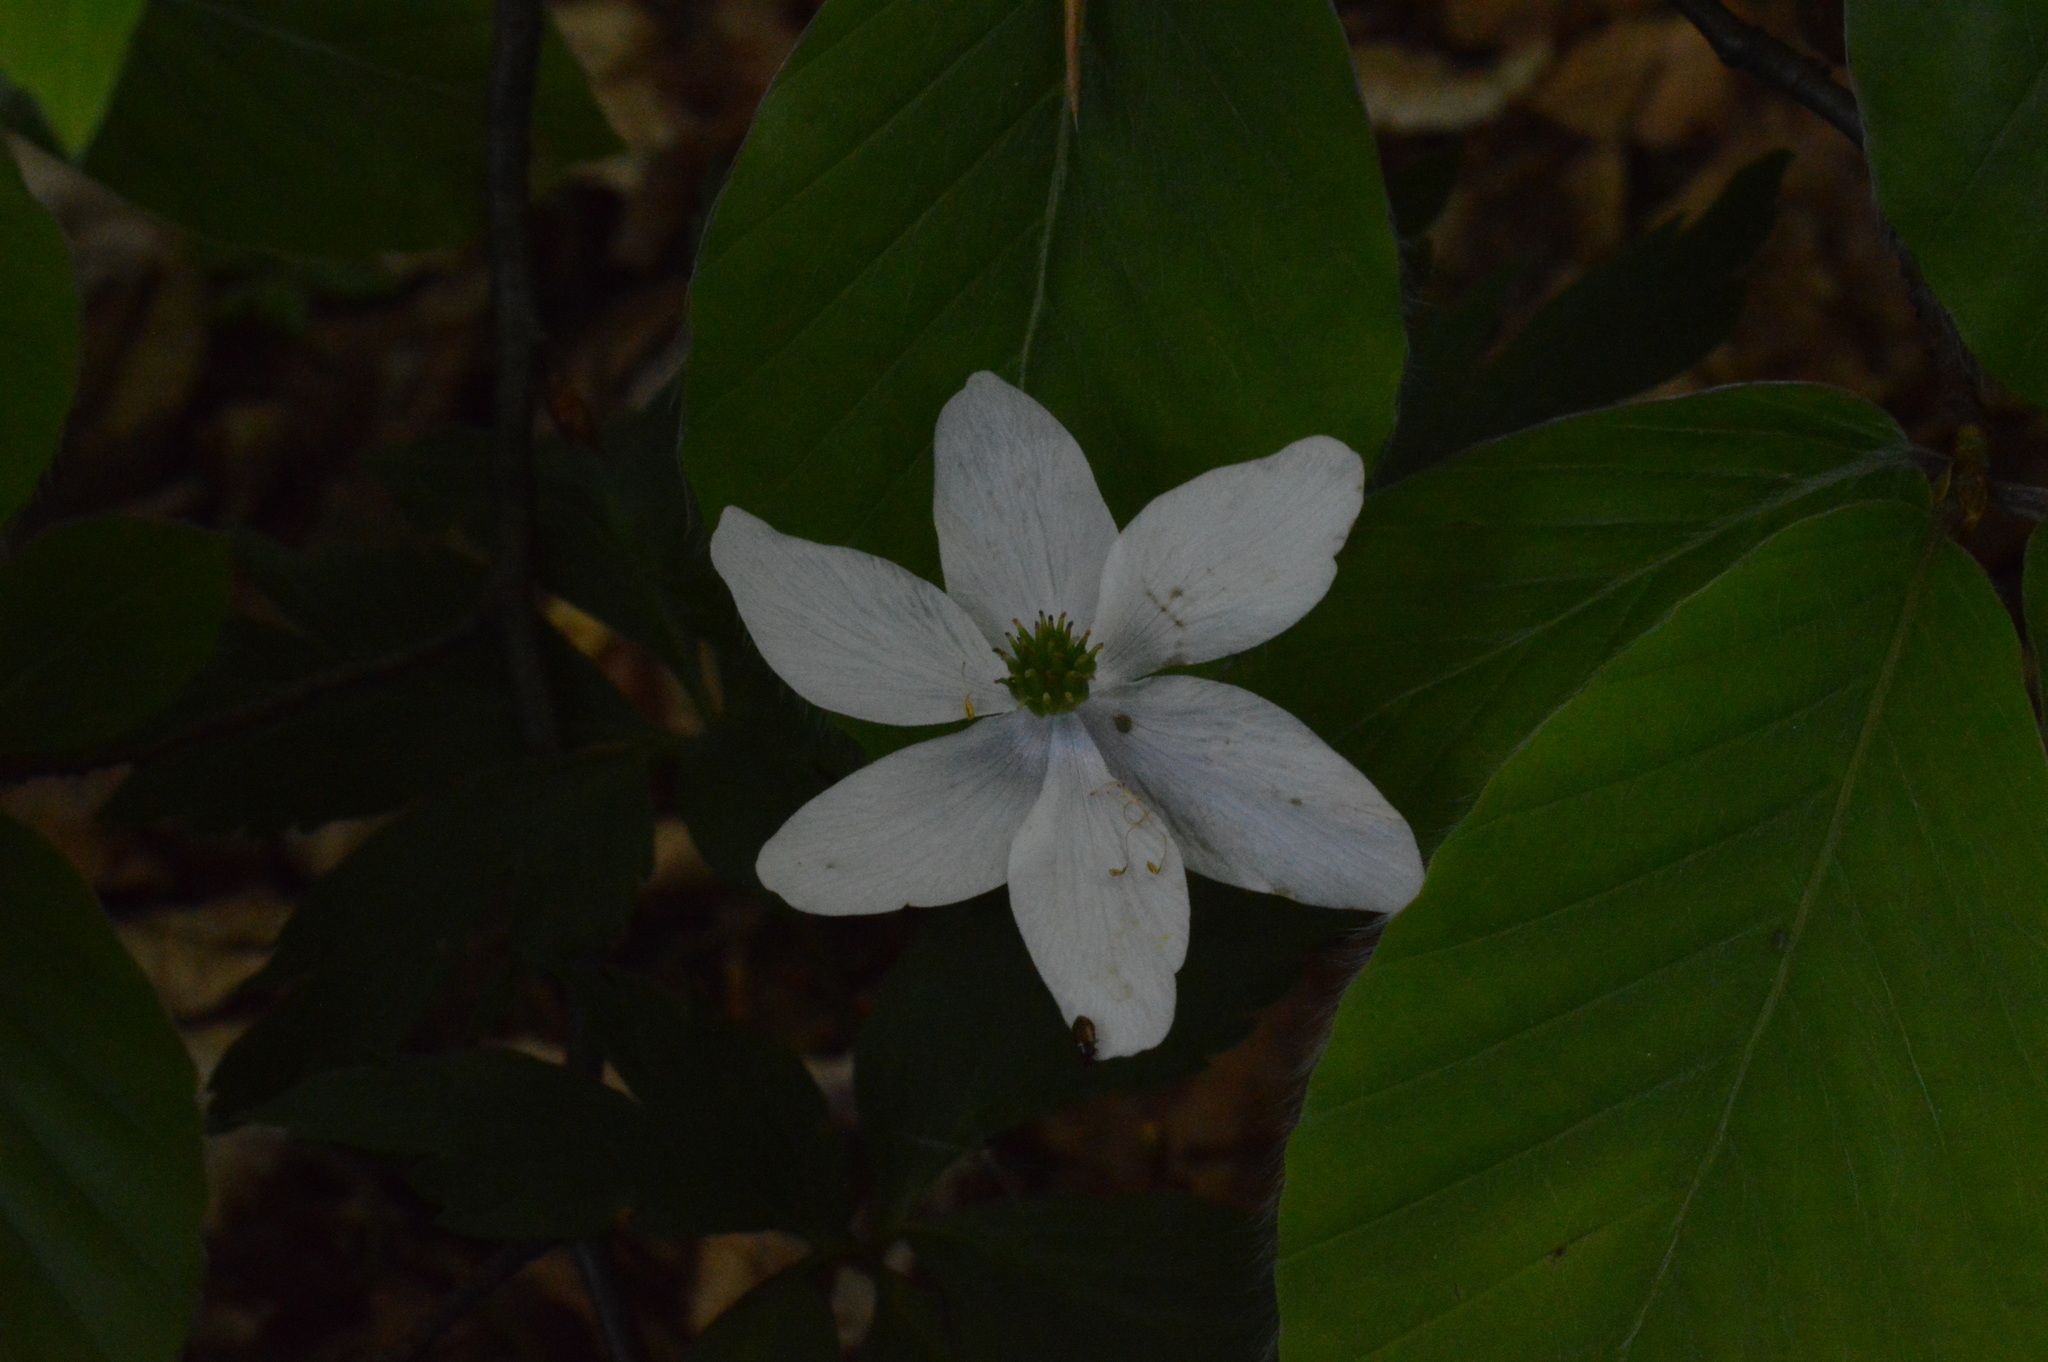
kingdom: Plantae
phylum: Tracheophyta
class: Magnoliopsida
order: Ranunculales
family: Ranunculaceae
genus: Anemone
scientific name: Anemone nemorosa
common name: Wood anemone
